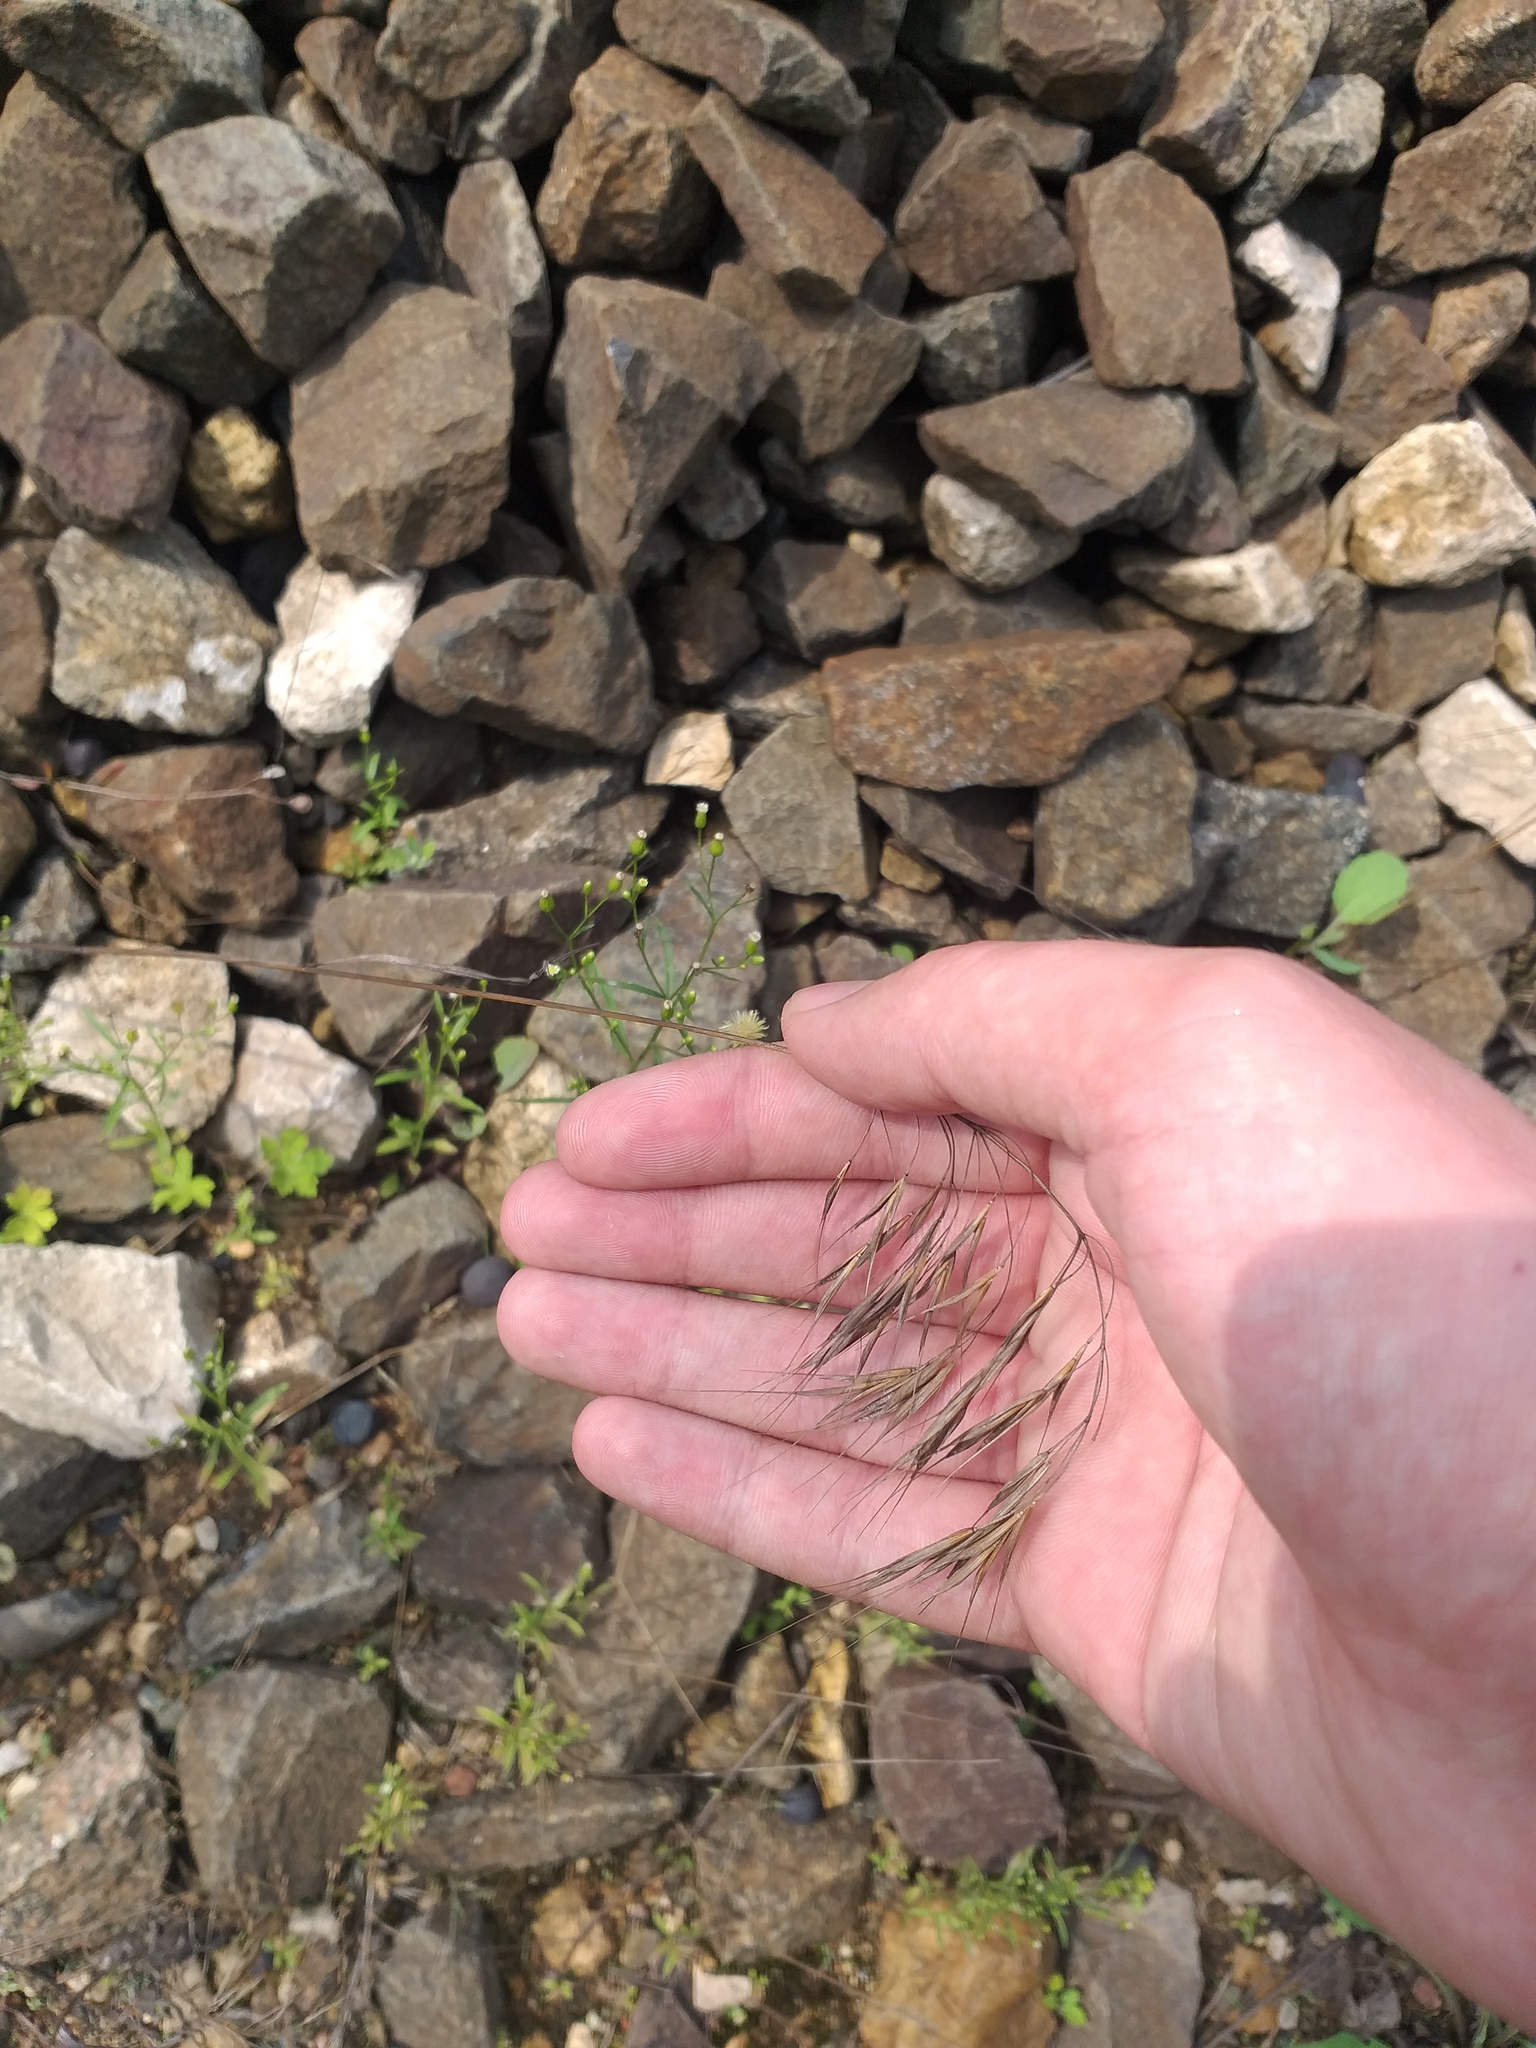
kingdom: Plantae
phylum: Tracheophyta
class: Liliopsida
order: Poales
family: Poaceae
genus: Bromus
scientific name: Bromus tectorum
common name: Cheatgrass
